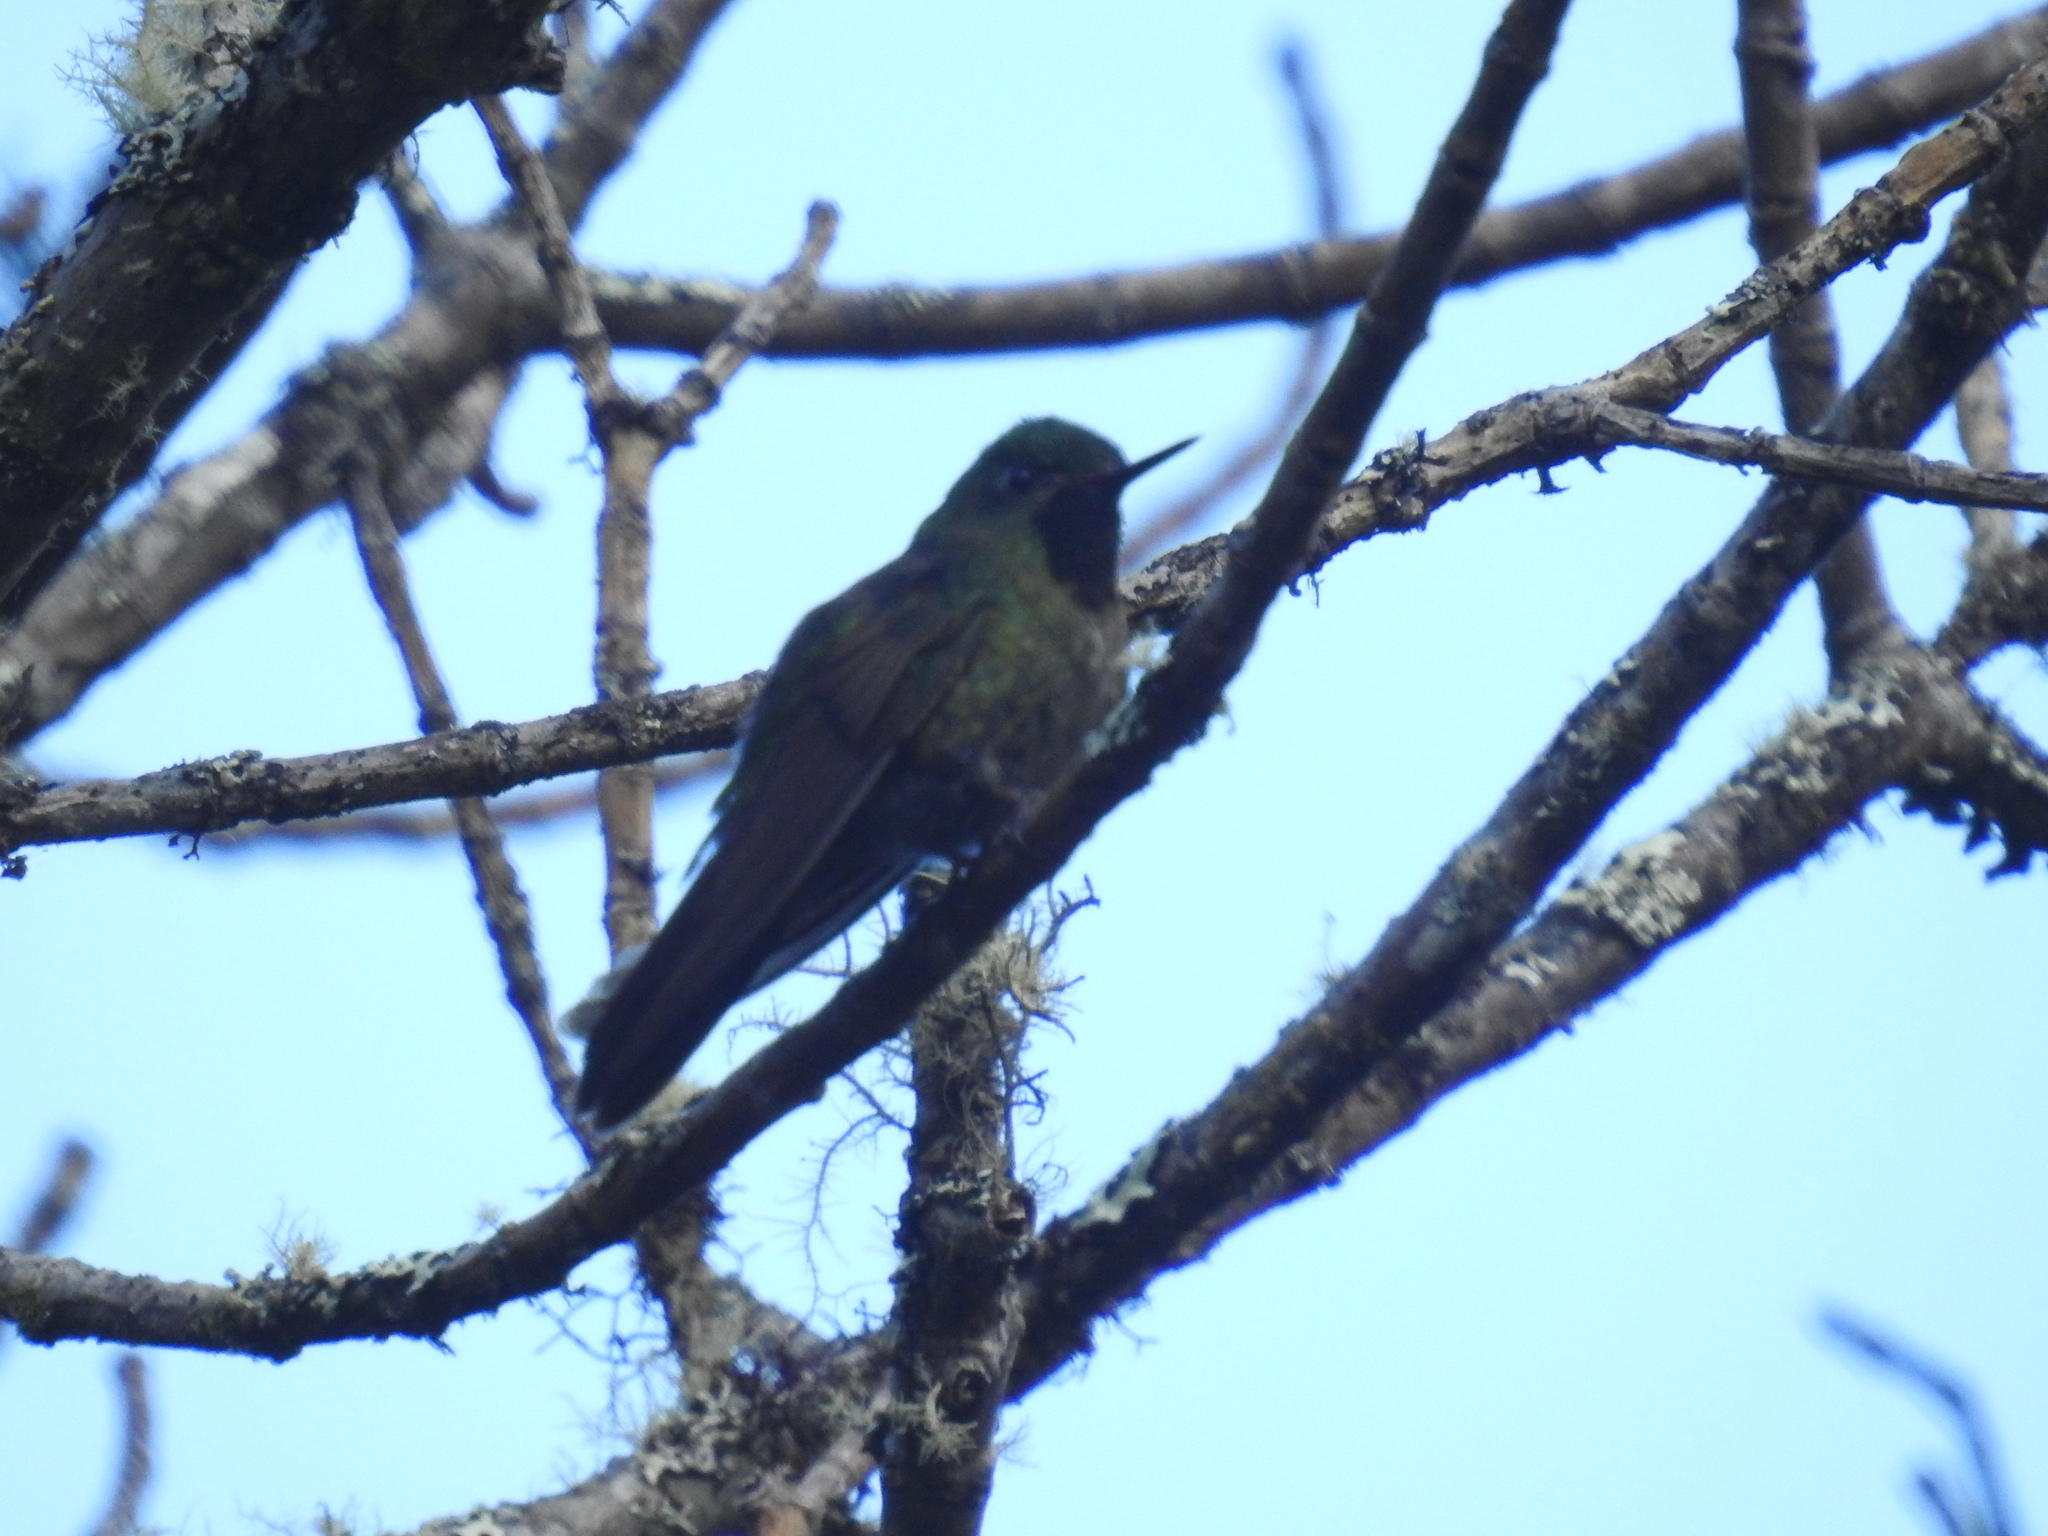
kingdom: Animalia
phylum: Chordata
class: Aves
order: Apodiformes
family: Trochilidae
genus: Metallura
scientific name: Metallura tyrianthina
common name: Tyrian metaltail
